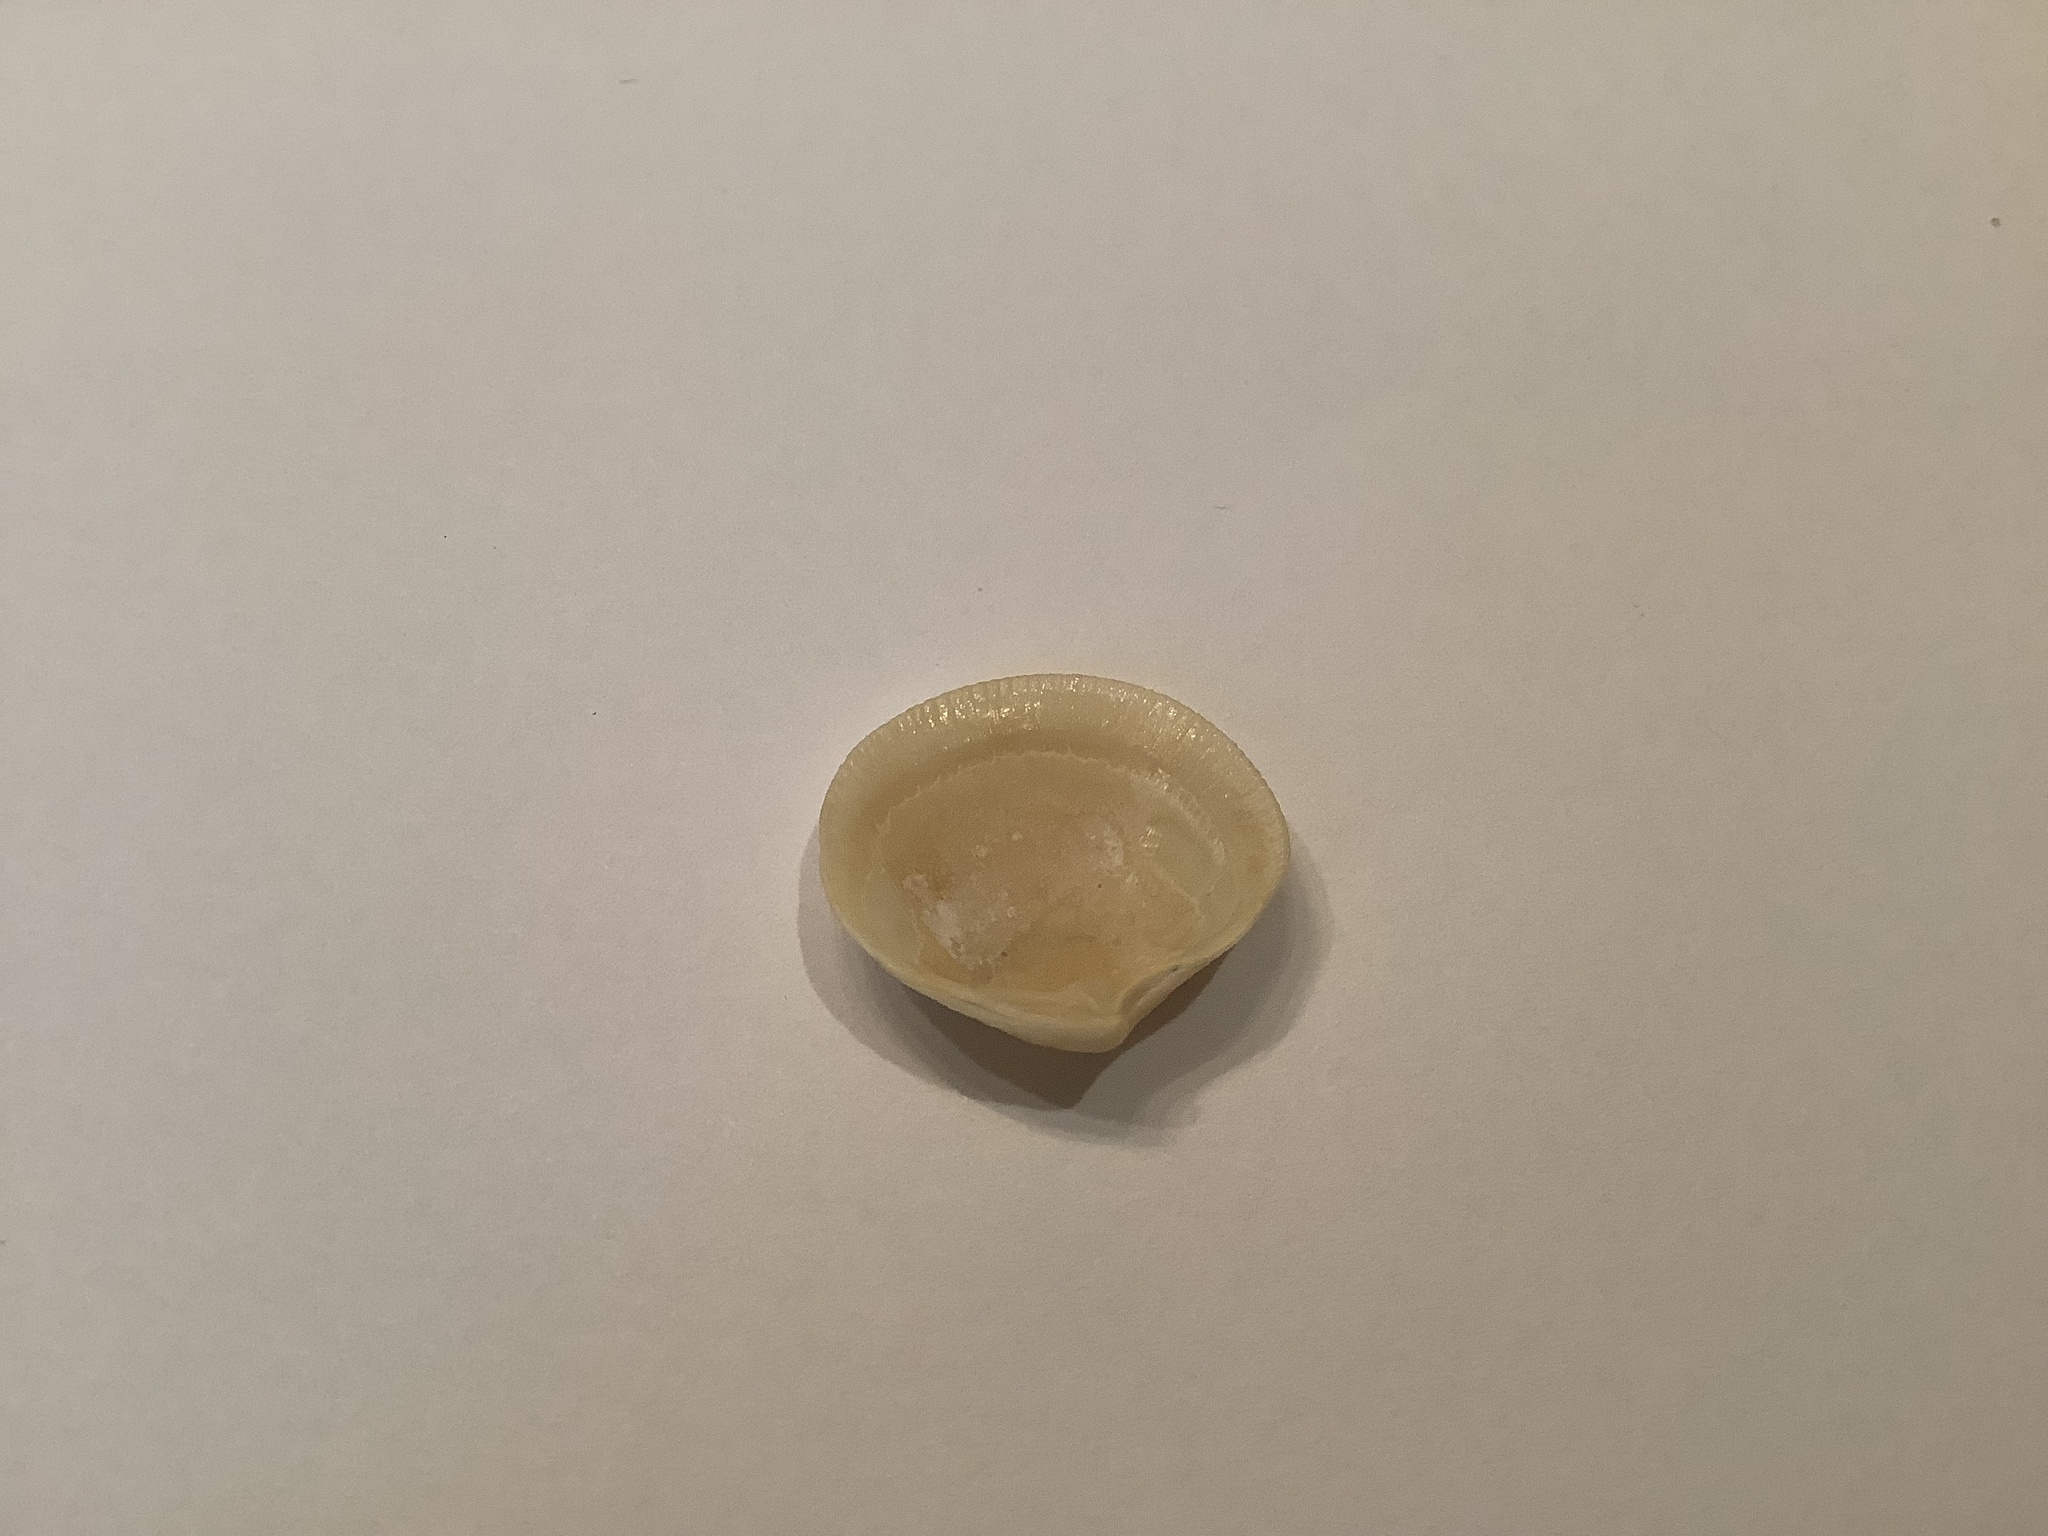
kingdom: Animalia
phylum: Mollusca
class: Bivalvia
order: Lucinida
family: Lucinidae
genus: Callucina
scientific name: Callucina keenae
